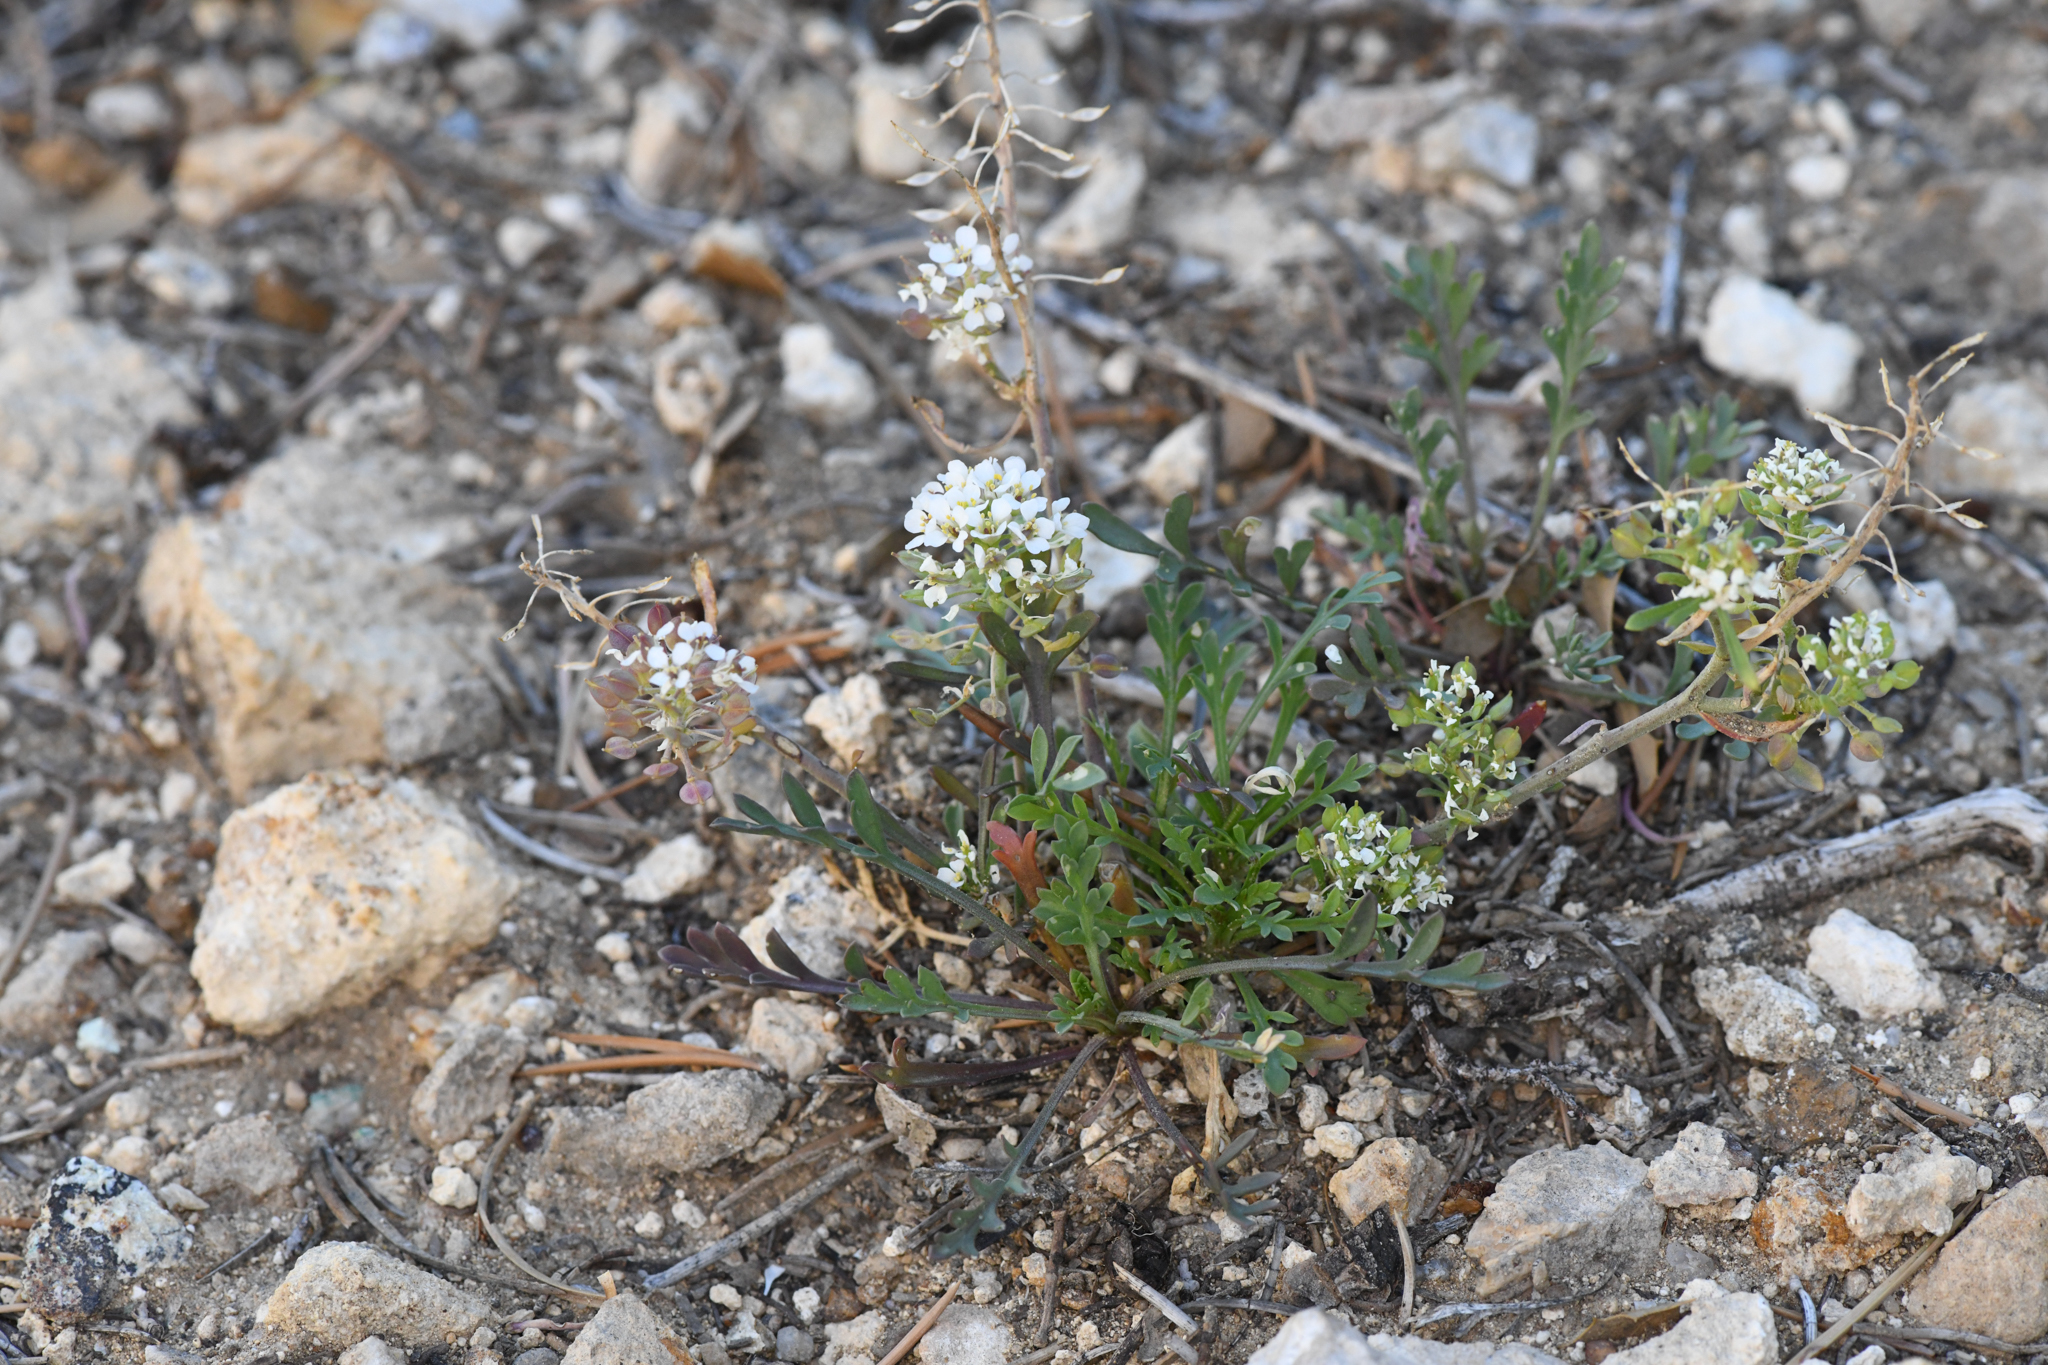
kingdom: Plantae
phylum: Tracheophyta
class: Magnoliopsida
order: Brassicales
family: Brassicaceae
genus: Lepidium
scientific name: Lepidium montanum
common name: Mountain pepperplant
